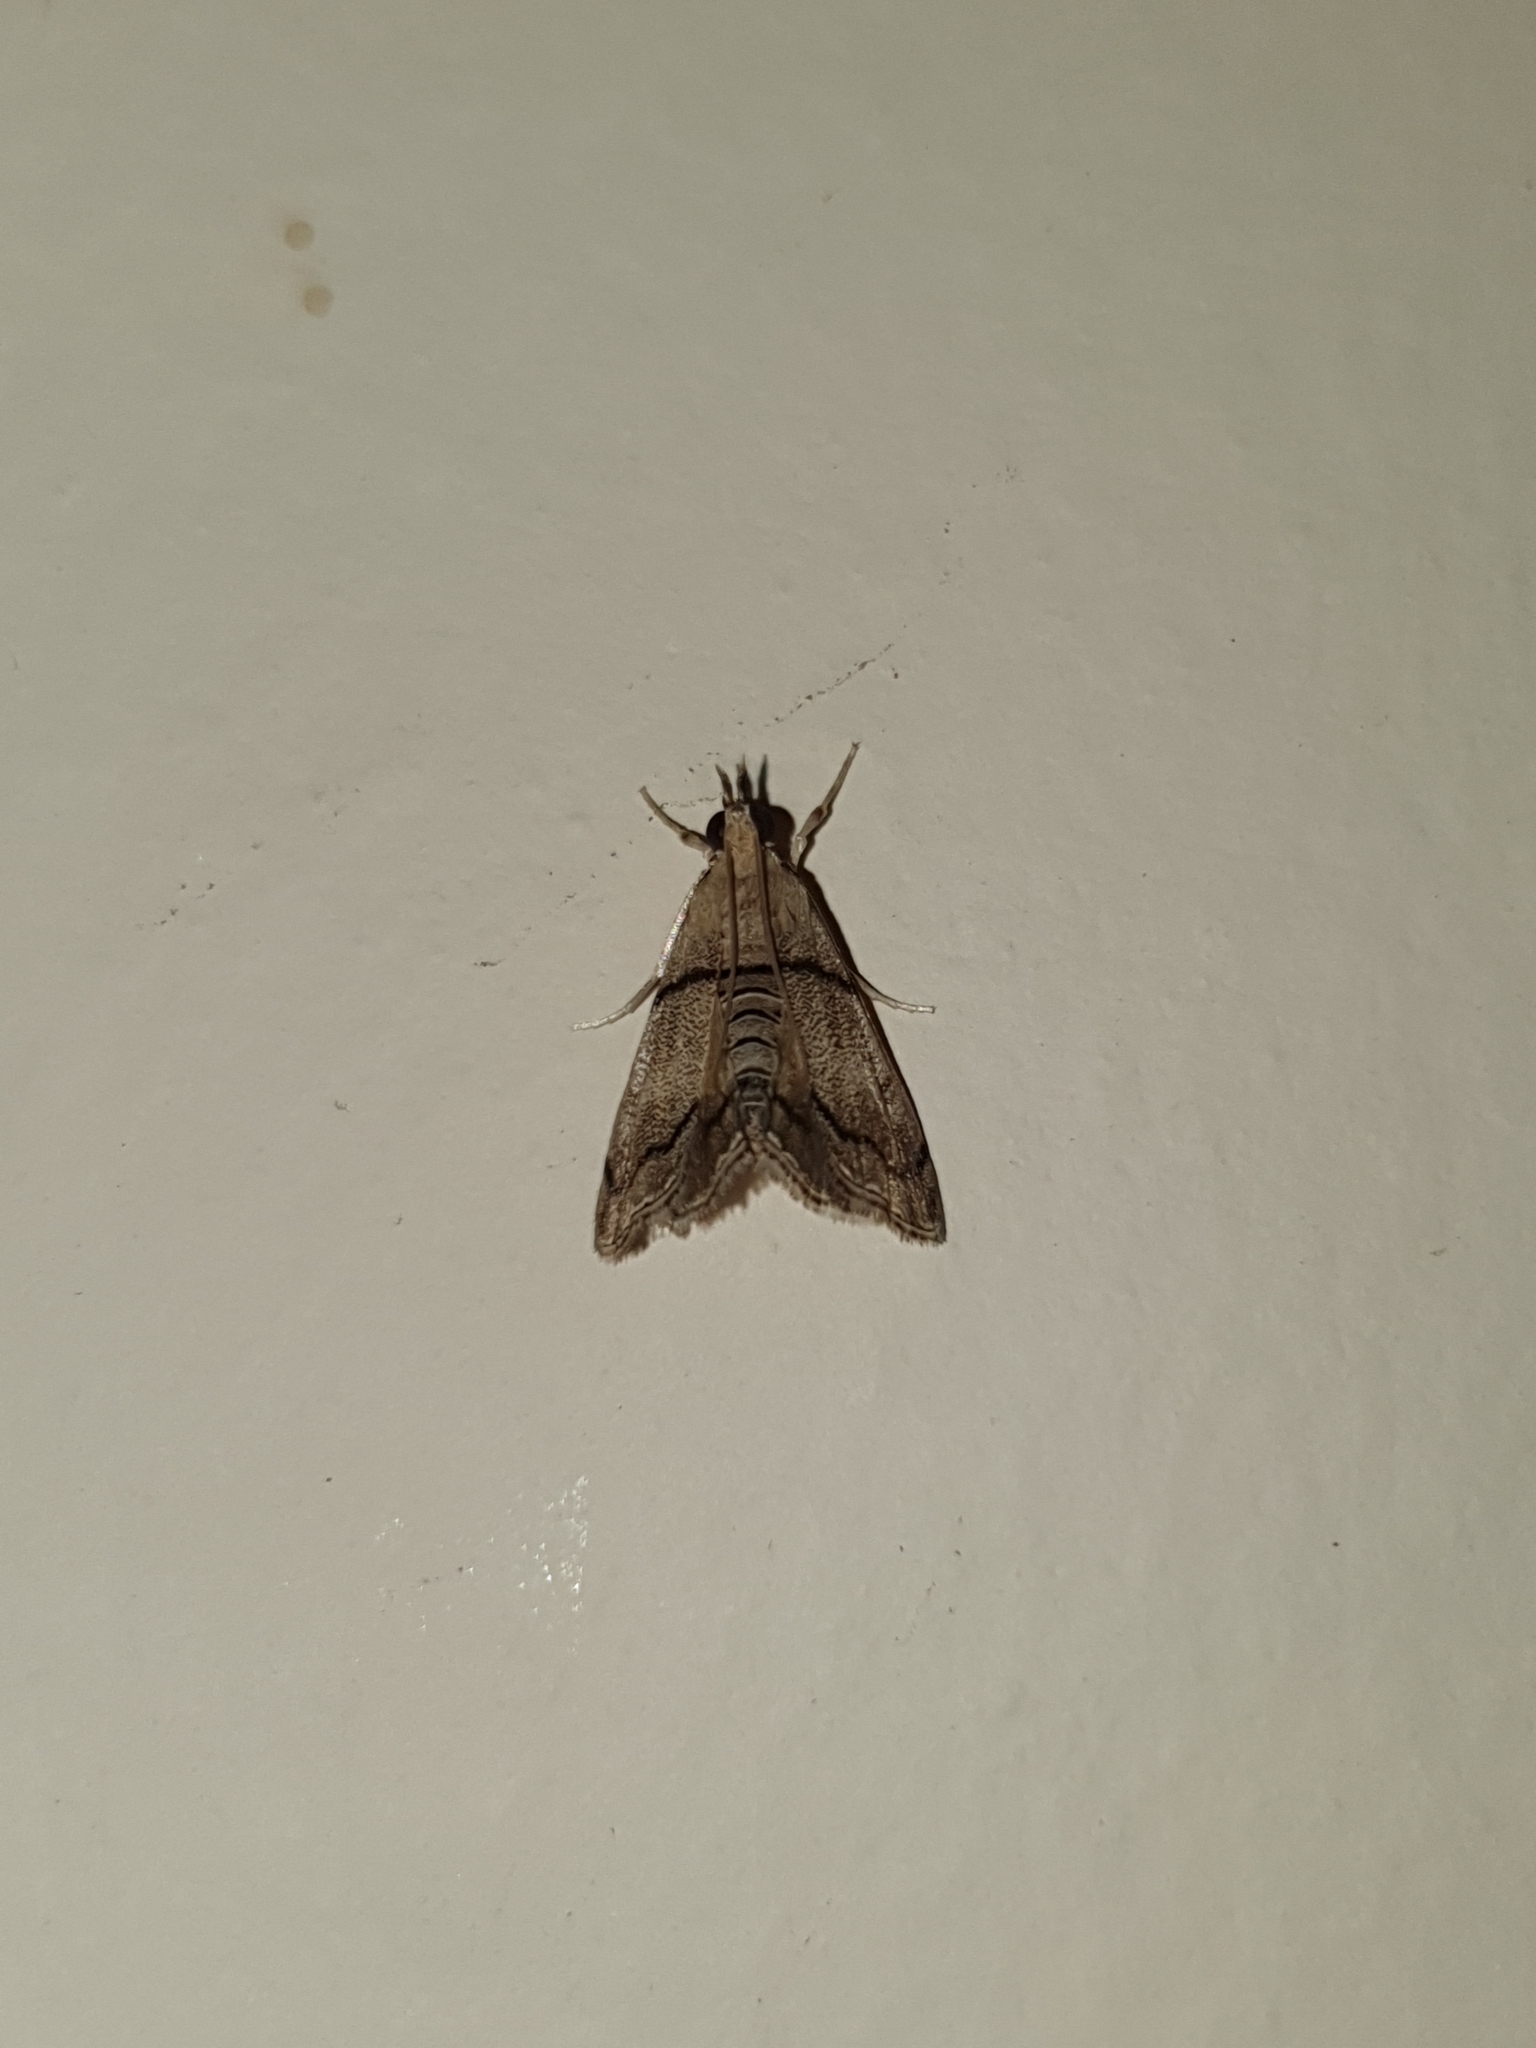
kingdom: Animalia
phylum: Arthropoda
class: Insecta
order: Lepidoptera
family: Crambidae
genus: Noorda
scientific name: Noorda blitealis
